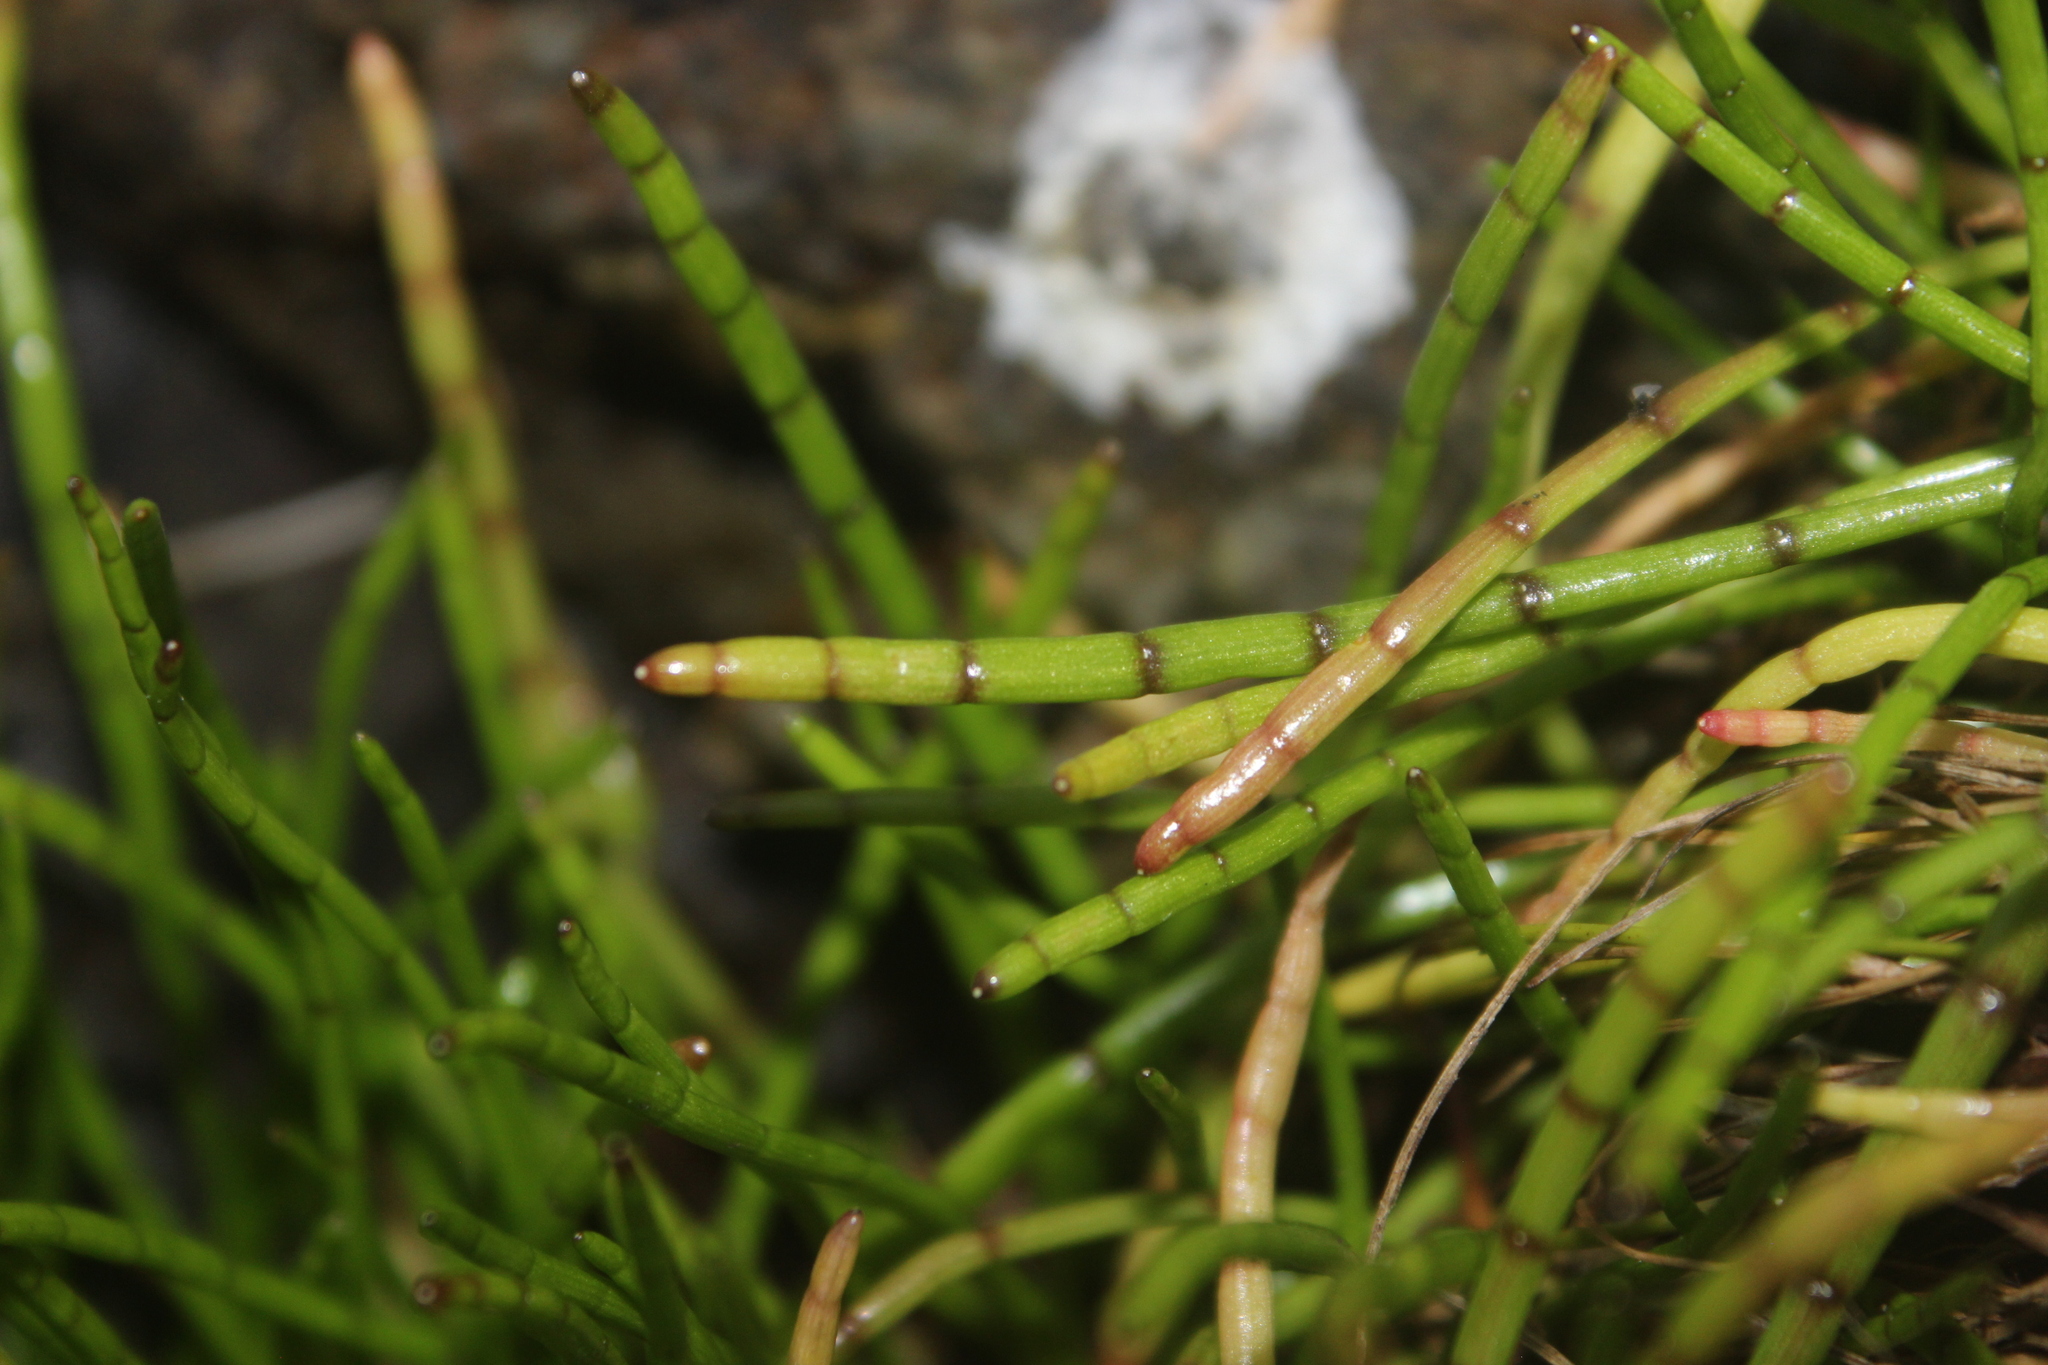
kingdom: Plantae
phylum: Tracheophyta
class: Magnoliopsida
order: Apiales
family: Apiaceae
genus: Lilaeopsis
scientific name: Lilaeopsis novae-zelandiae
